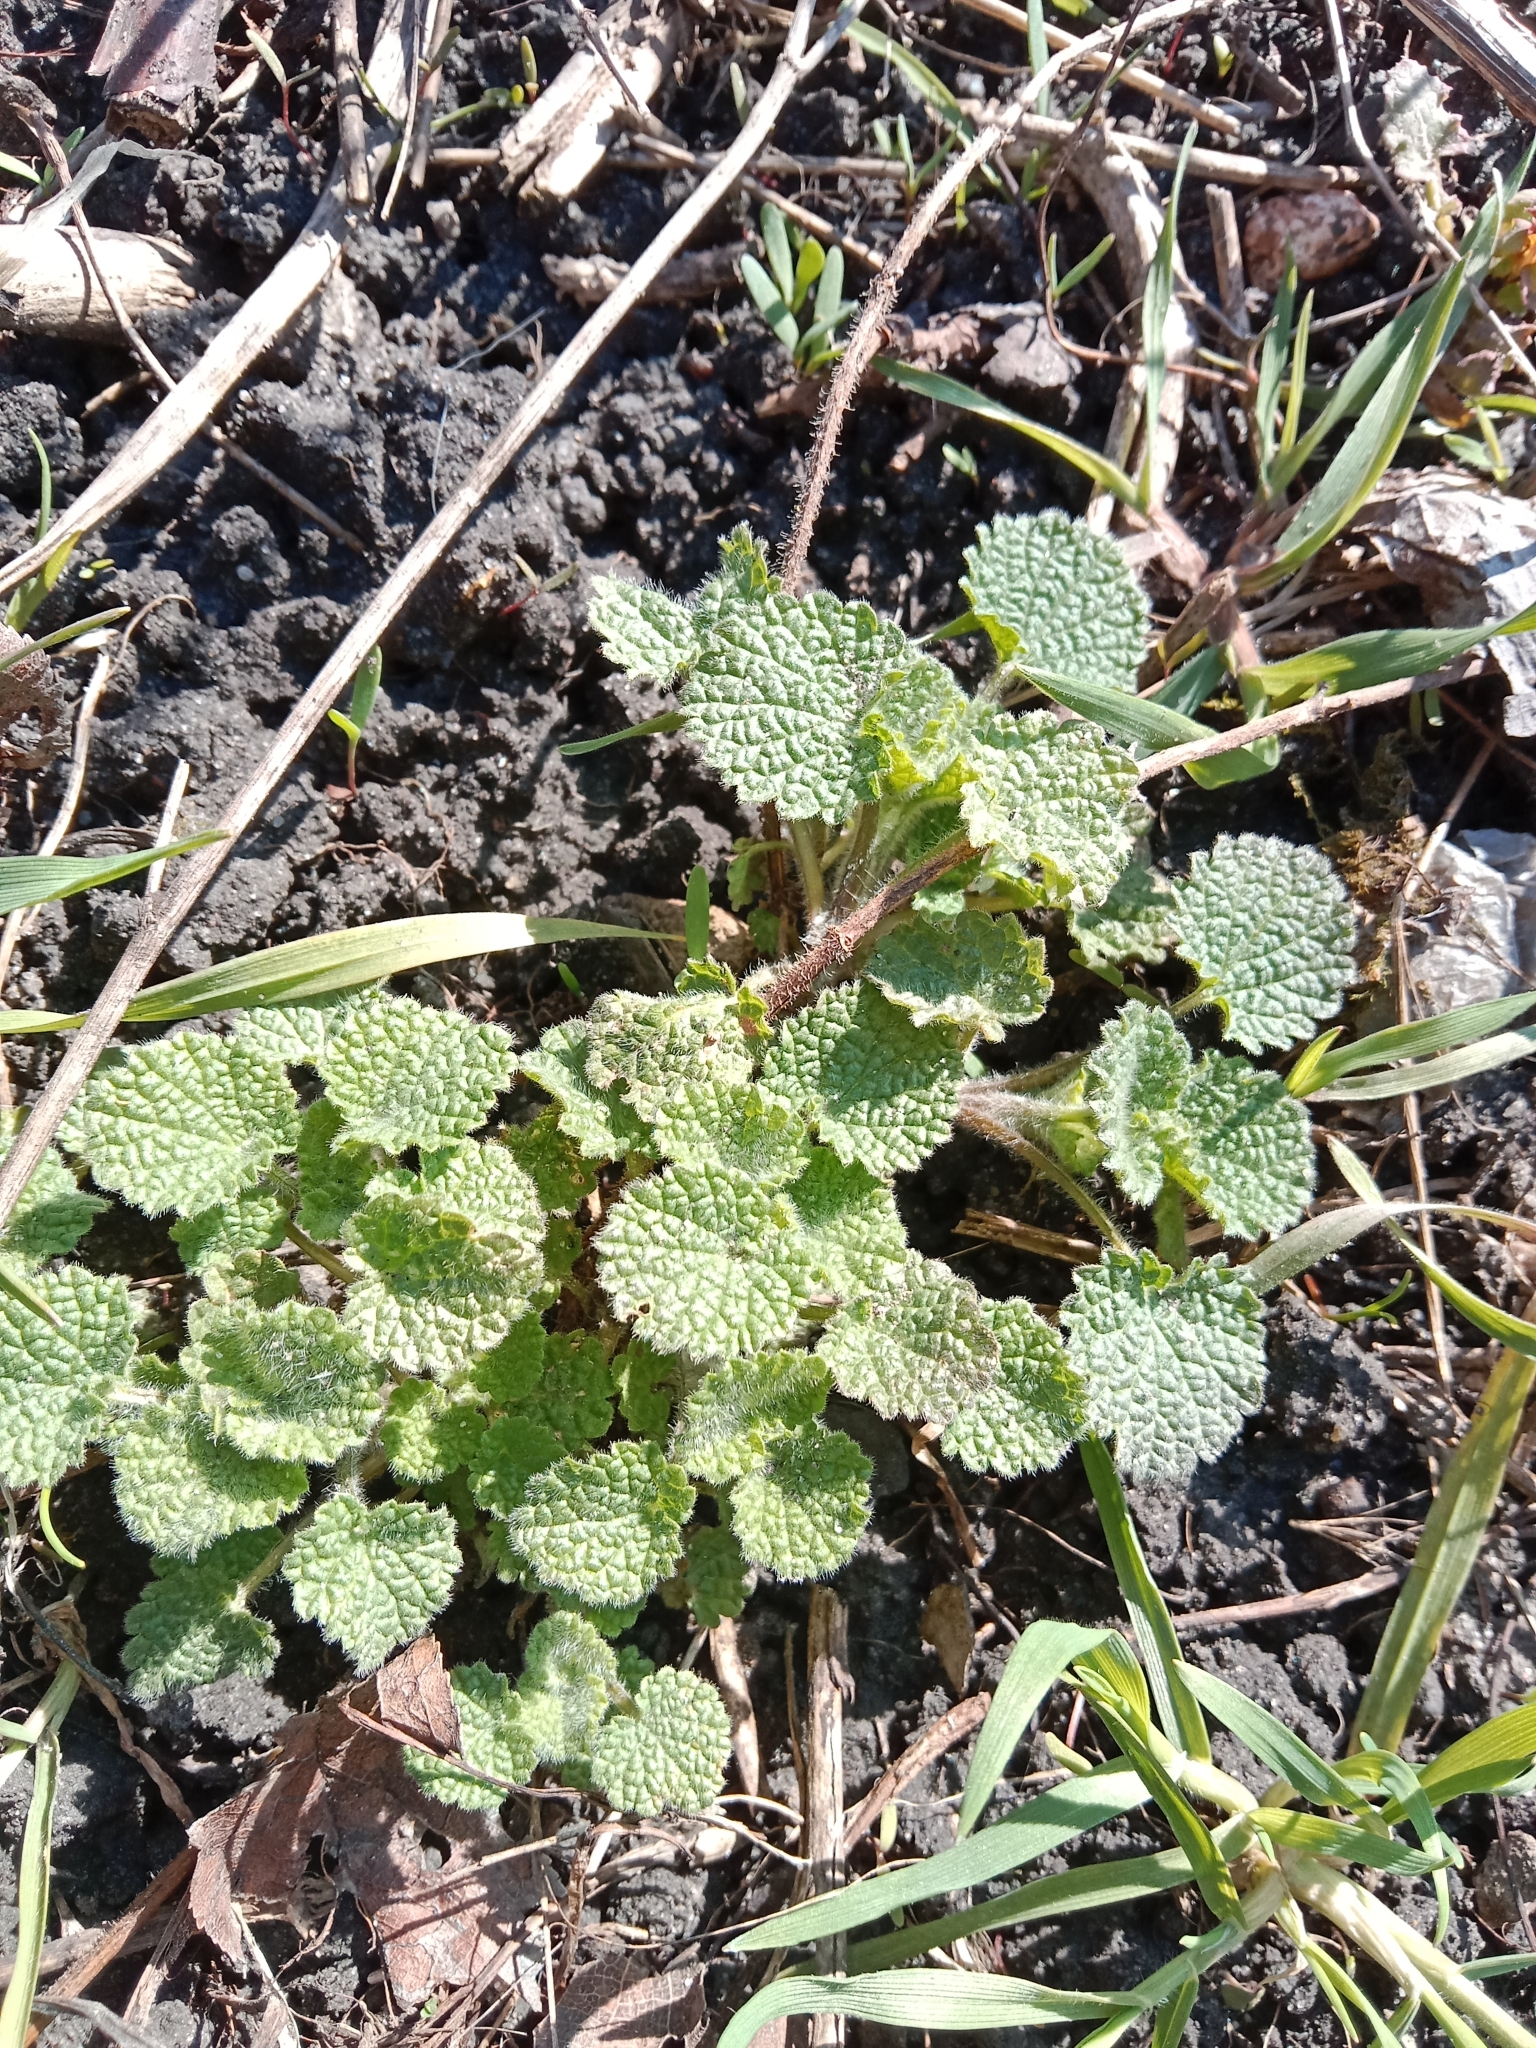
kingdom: Plantae
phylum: Tracheophyta
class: Magnoliopsida
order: Lamiales
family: Lamiaceae
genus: Ballota
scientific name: Ballota nigra
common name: Black horehound
